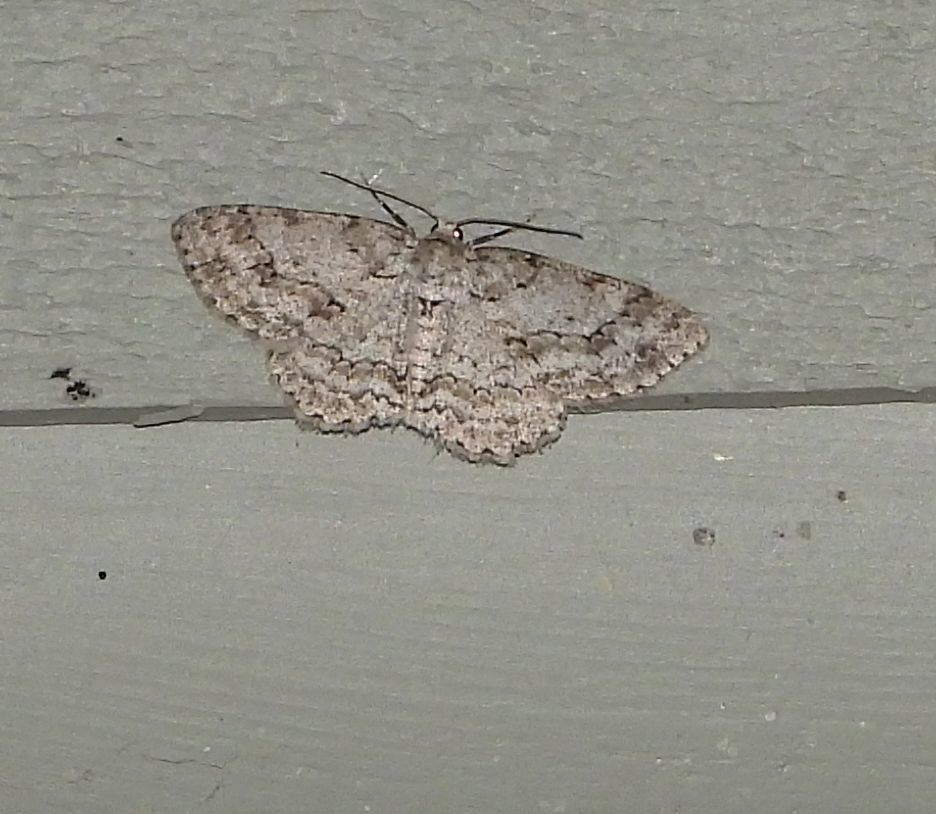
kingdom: Animalia
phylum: Arthropoda
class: Insecta
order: Lepidoptera
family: Geometridae
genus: Ectropis
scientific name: Ectropis crepuscularia
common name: Engrailed
